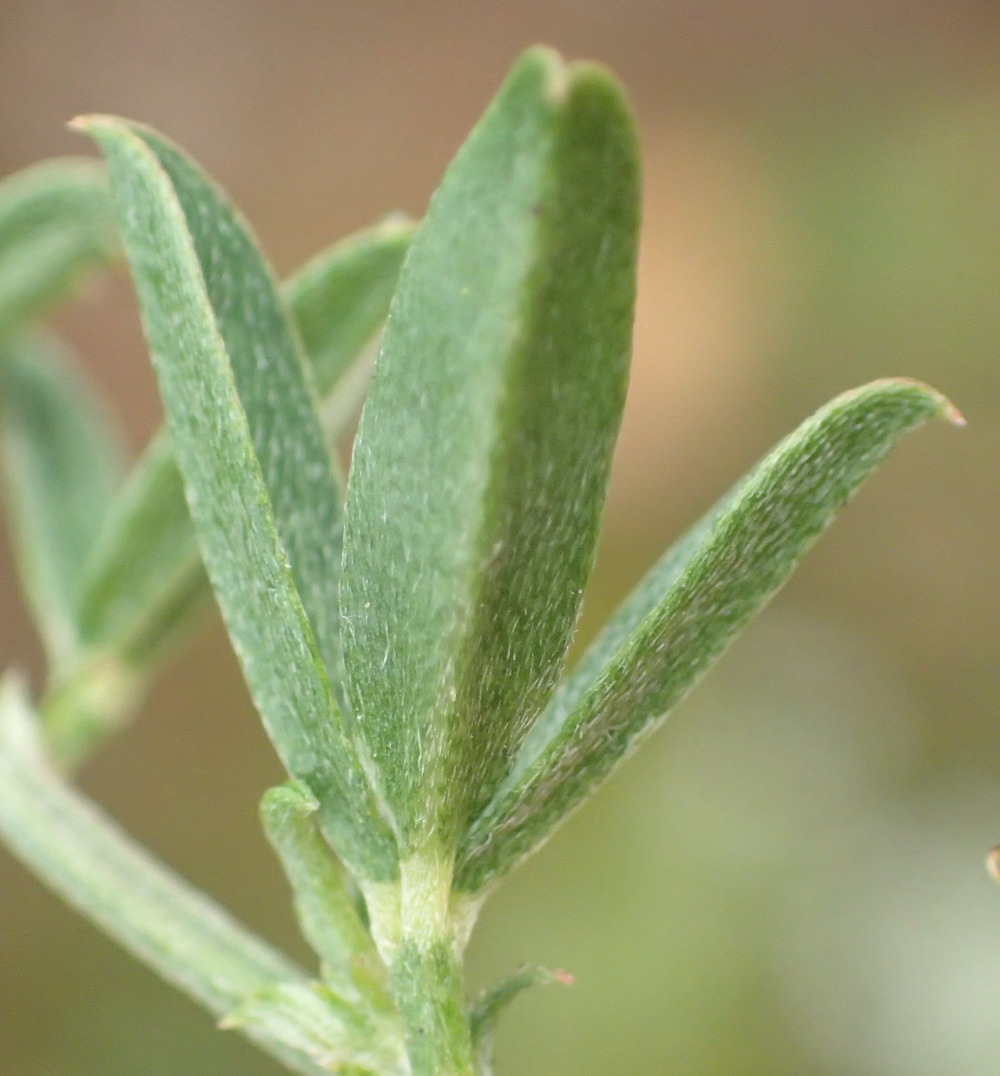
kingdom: Plantae
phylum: Tracheophyta
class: Magnoliopsida
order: Fabales
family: Fabaceae
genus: Indigofera
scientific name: Indigofera priorii
